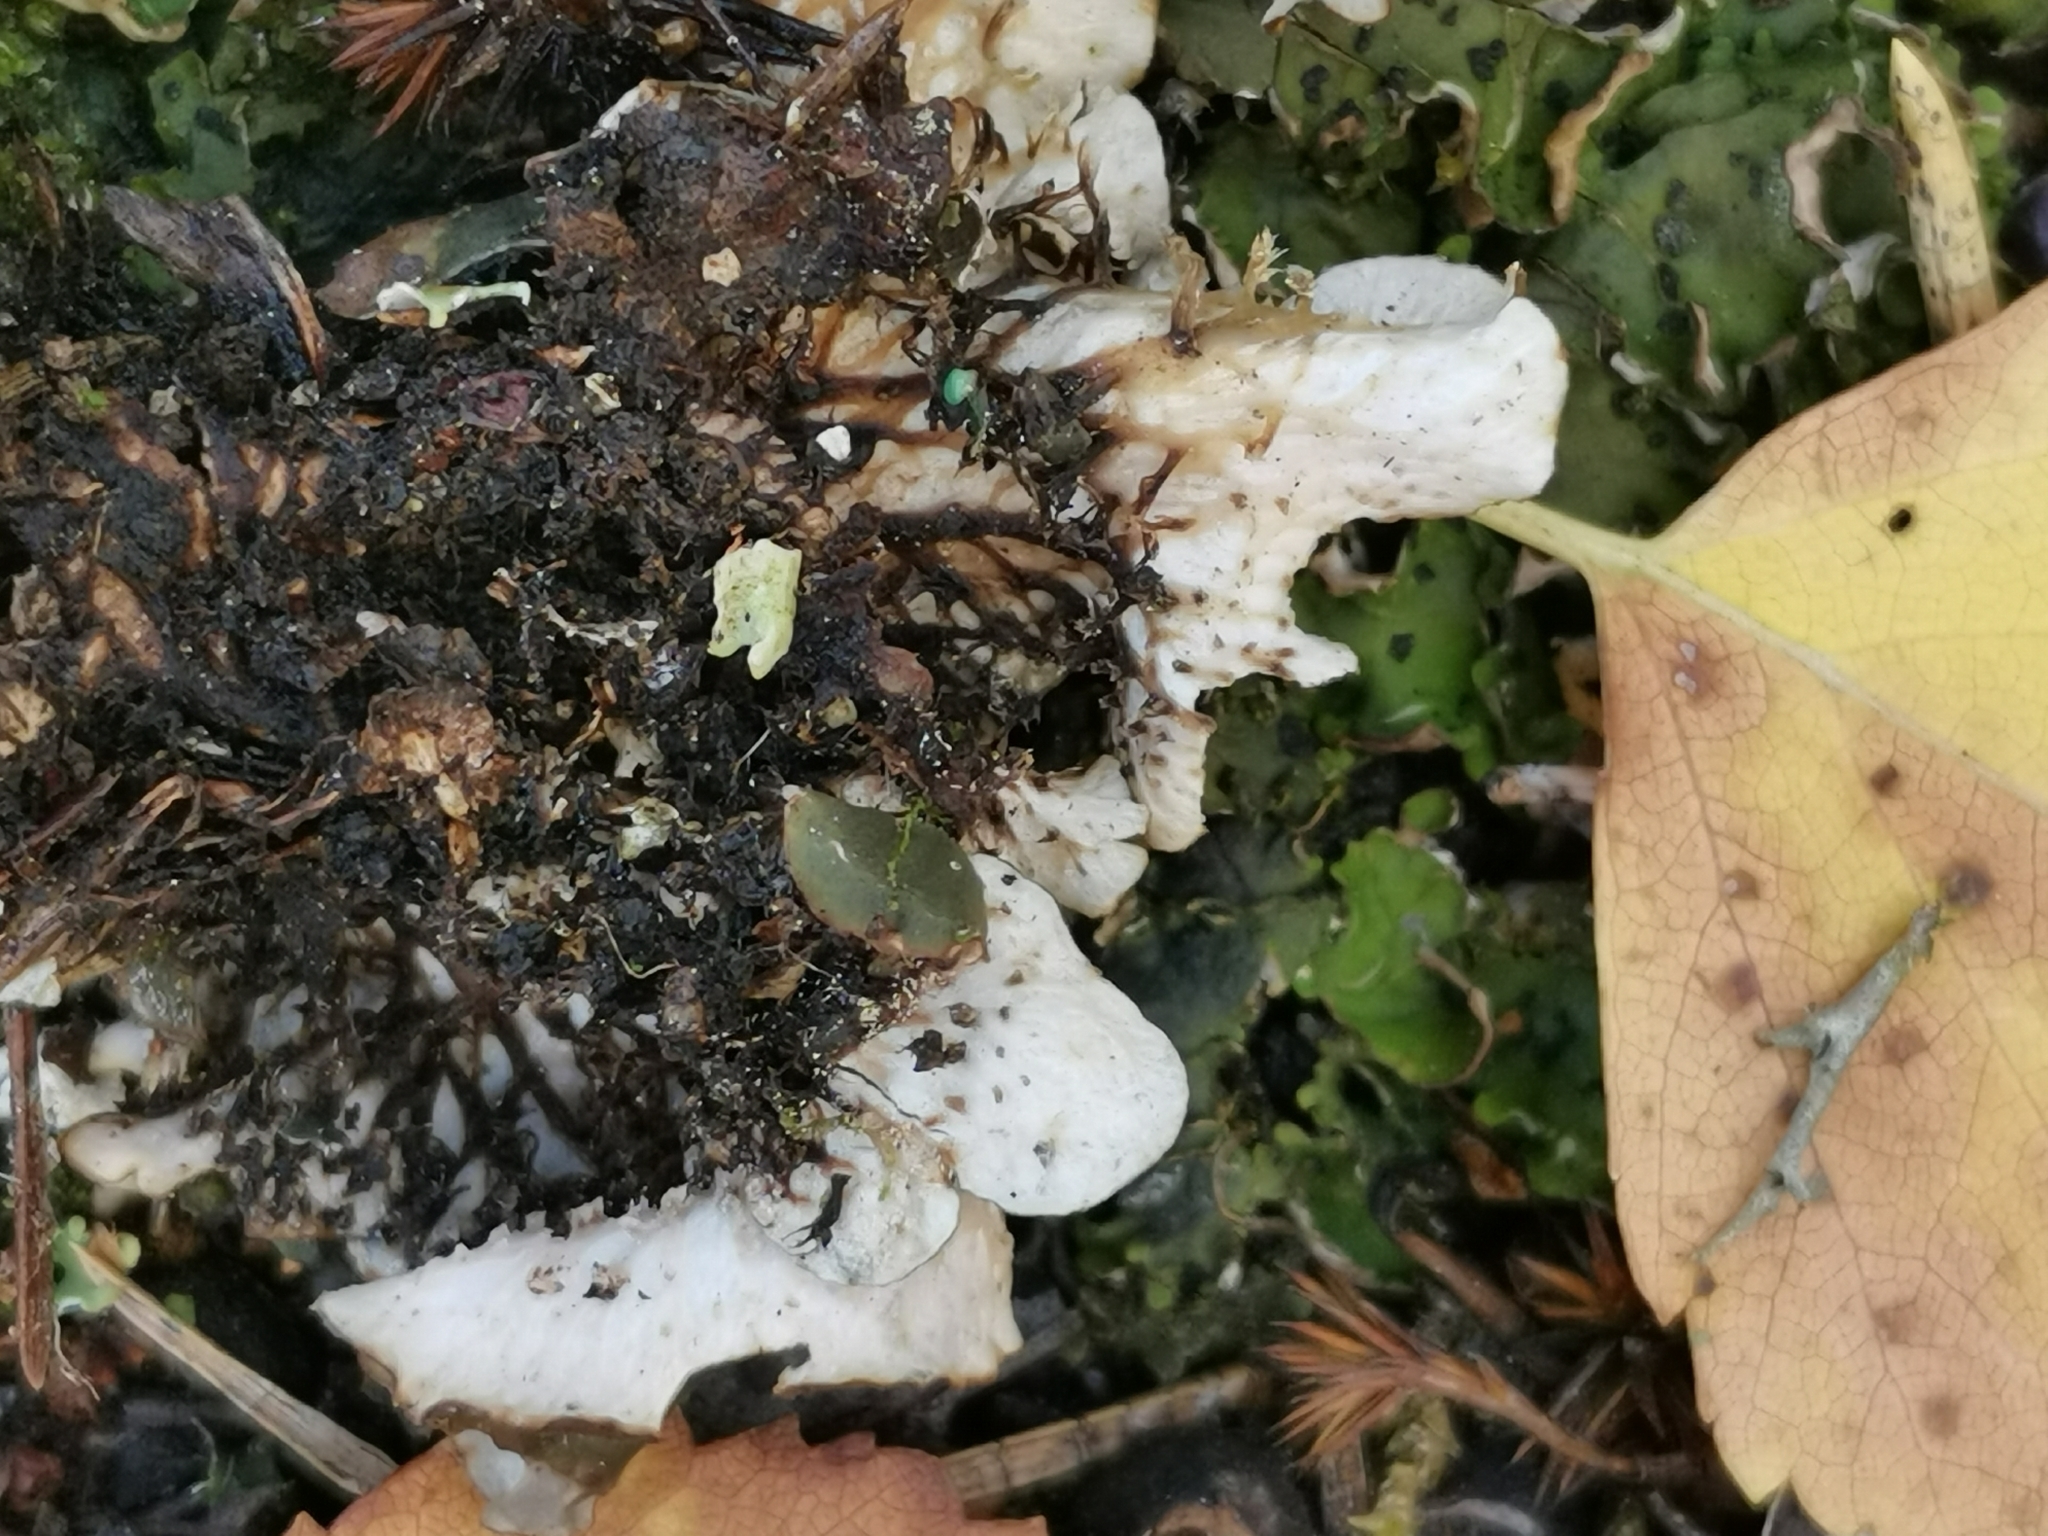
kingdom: Fungi
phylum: Ascomycota
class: Lecanoromycetes
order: Peltigerales
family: Peltigeraceae
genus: Peltigera
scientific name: Peltigera rufescens
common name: Field dog lichen
